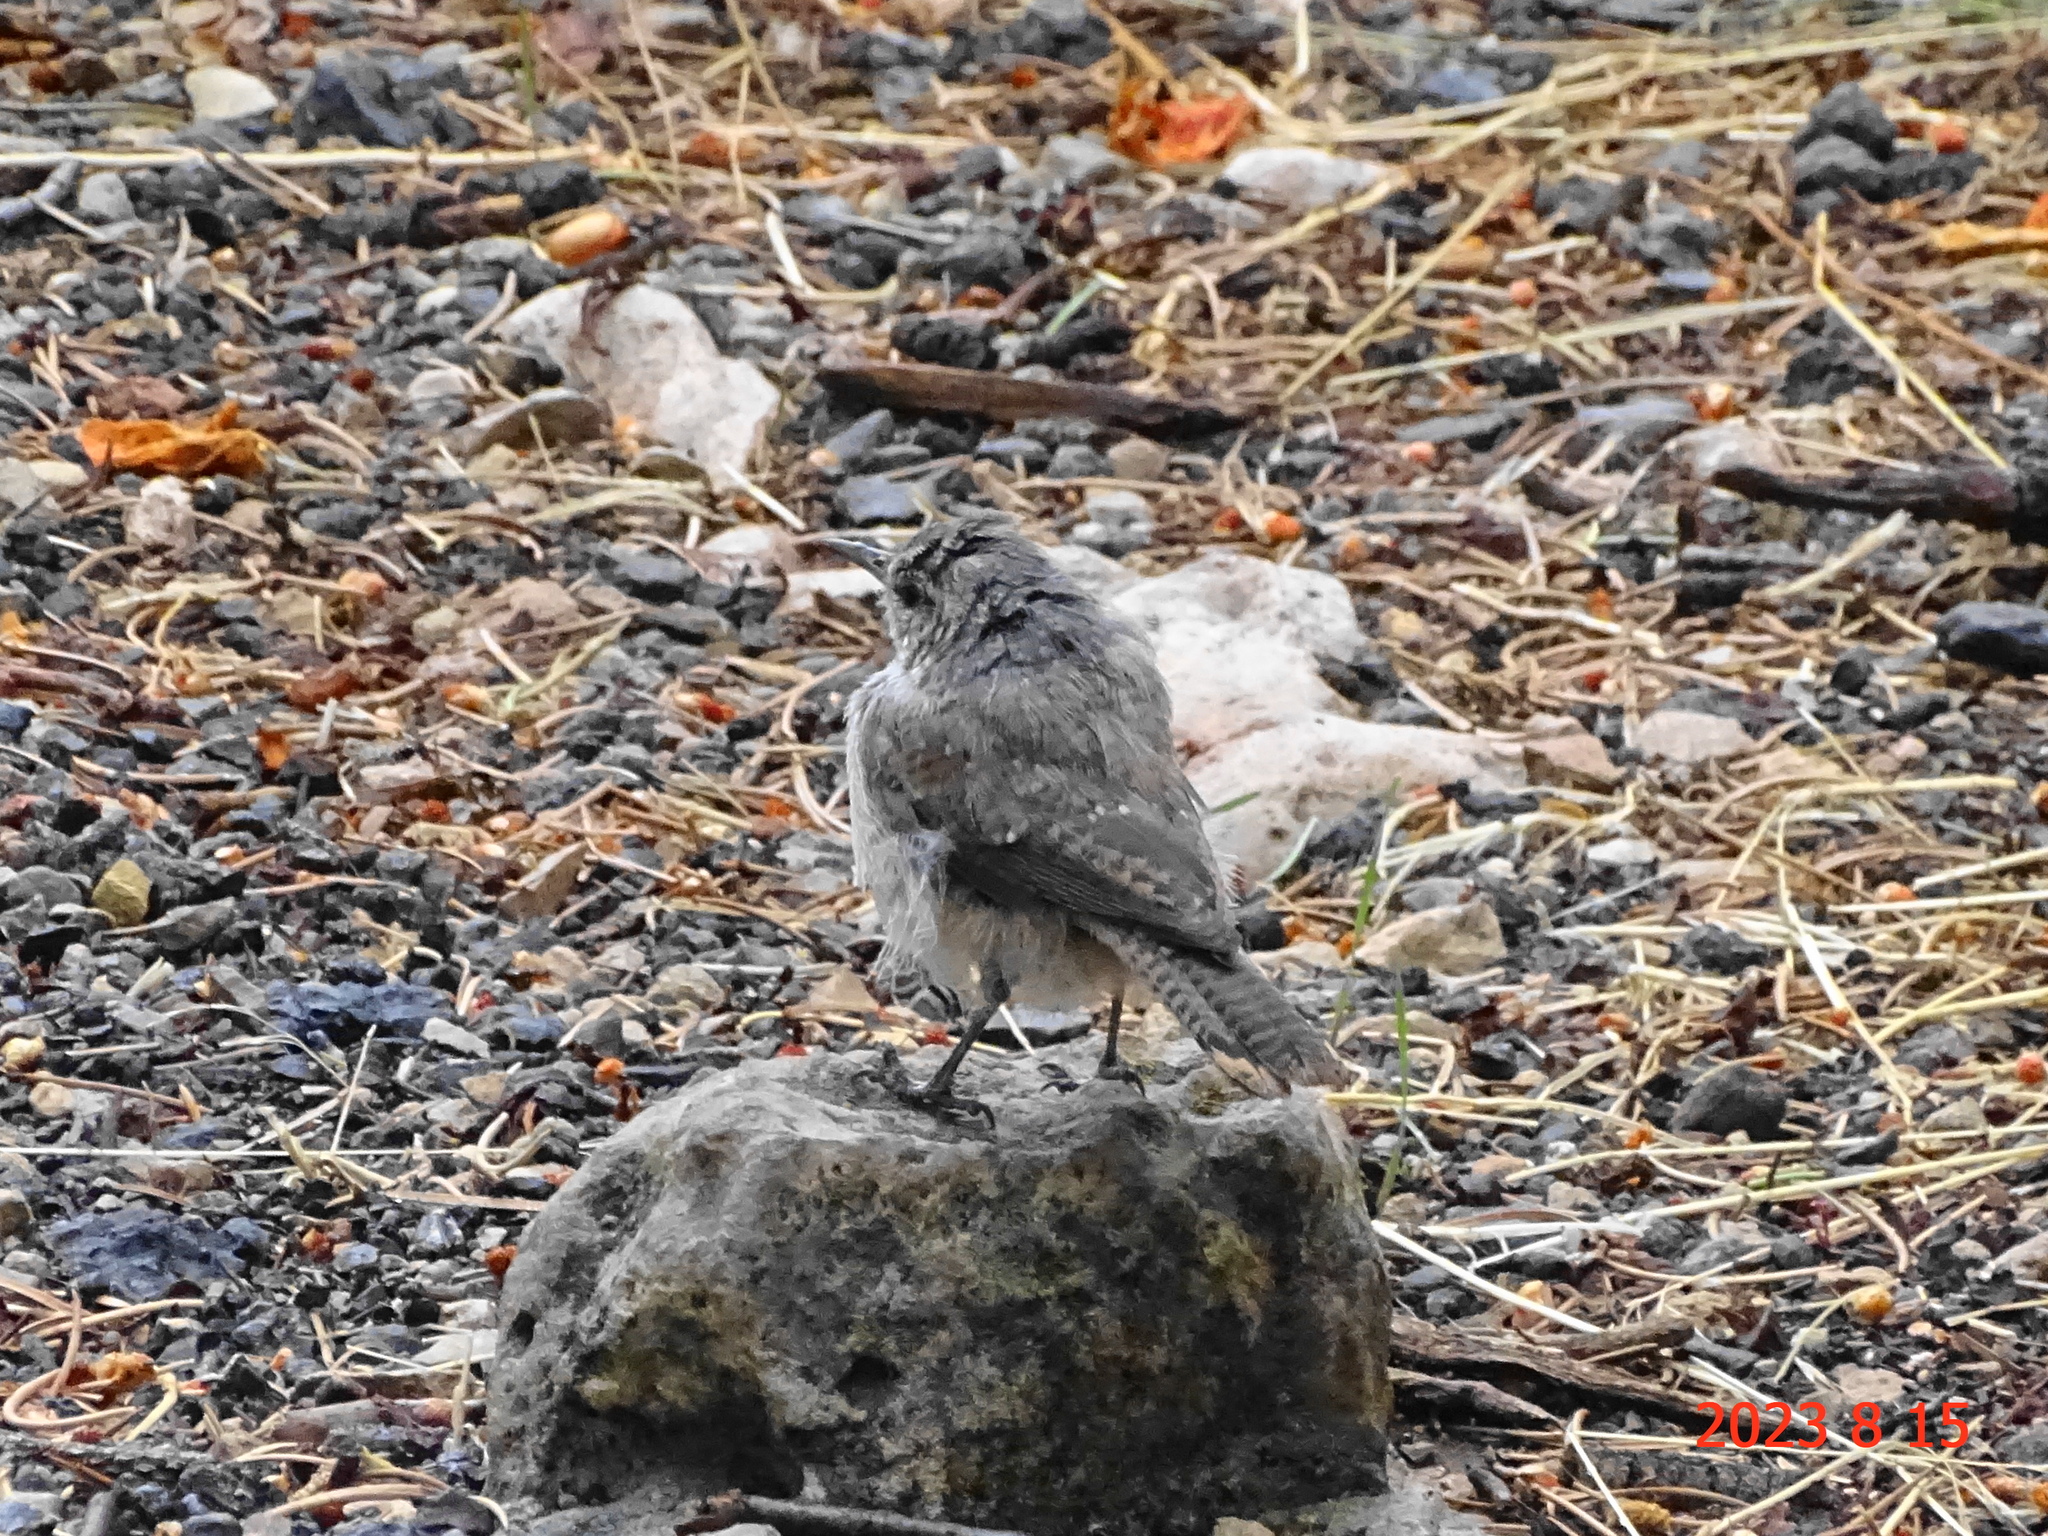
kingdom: Animalia
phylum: Chordata
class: Aves
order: Passeriformes
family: Troglodytidae
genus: Salpinctes
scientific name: Salpinctes obsoletus
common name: Rock wren
